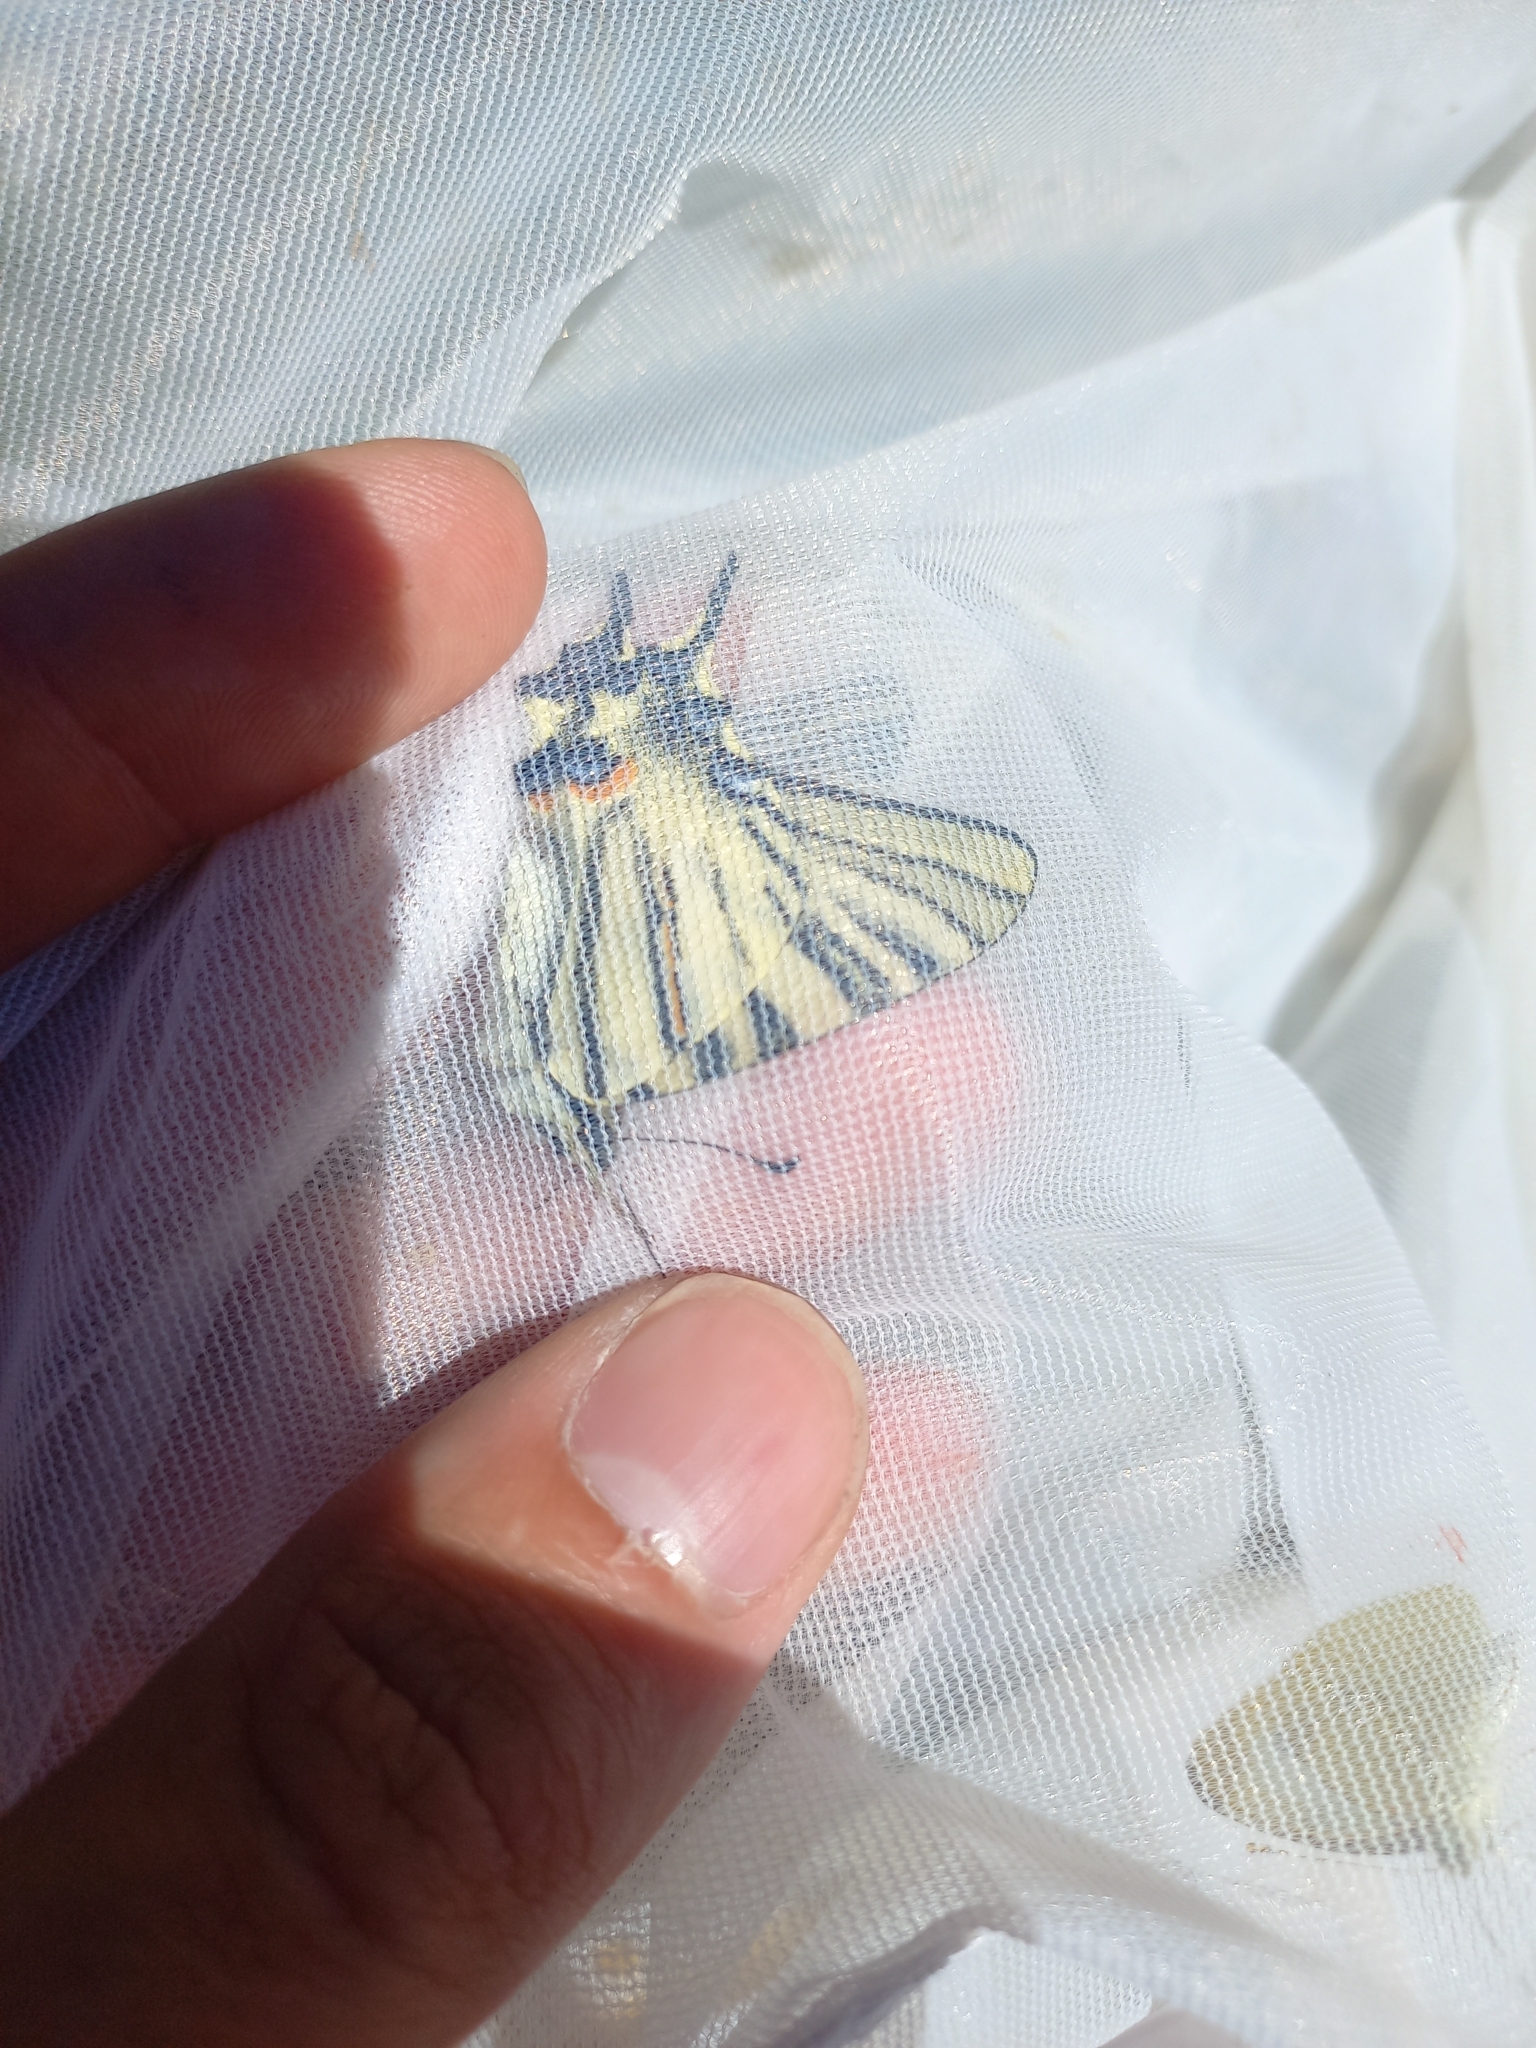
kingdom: Animalia
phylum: Arthropoda
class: Insecta
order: Lepidoptera
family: Papilionidae
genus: Iphiclides
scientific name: Iphiclides podalirius
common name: Scarce swallowtail
